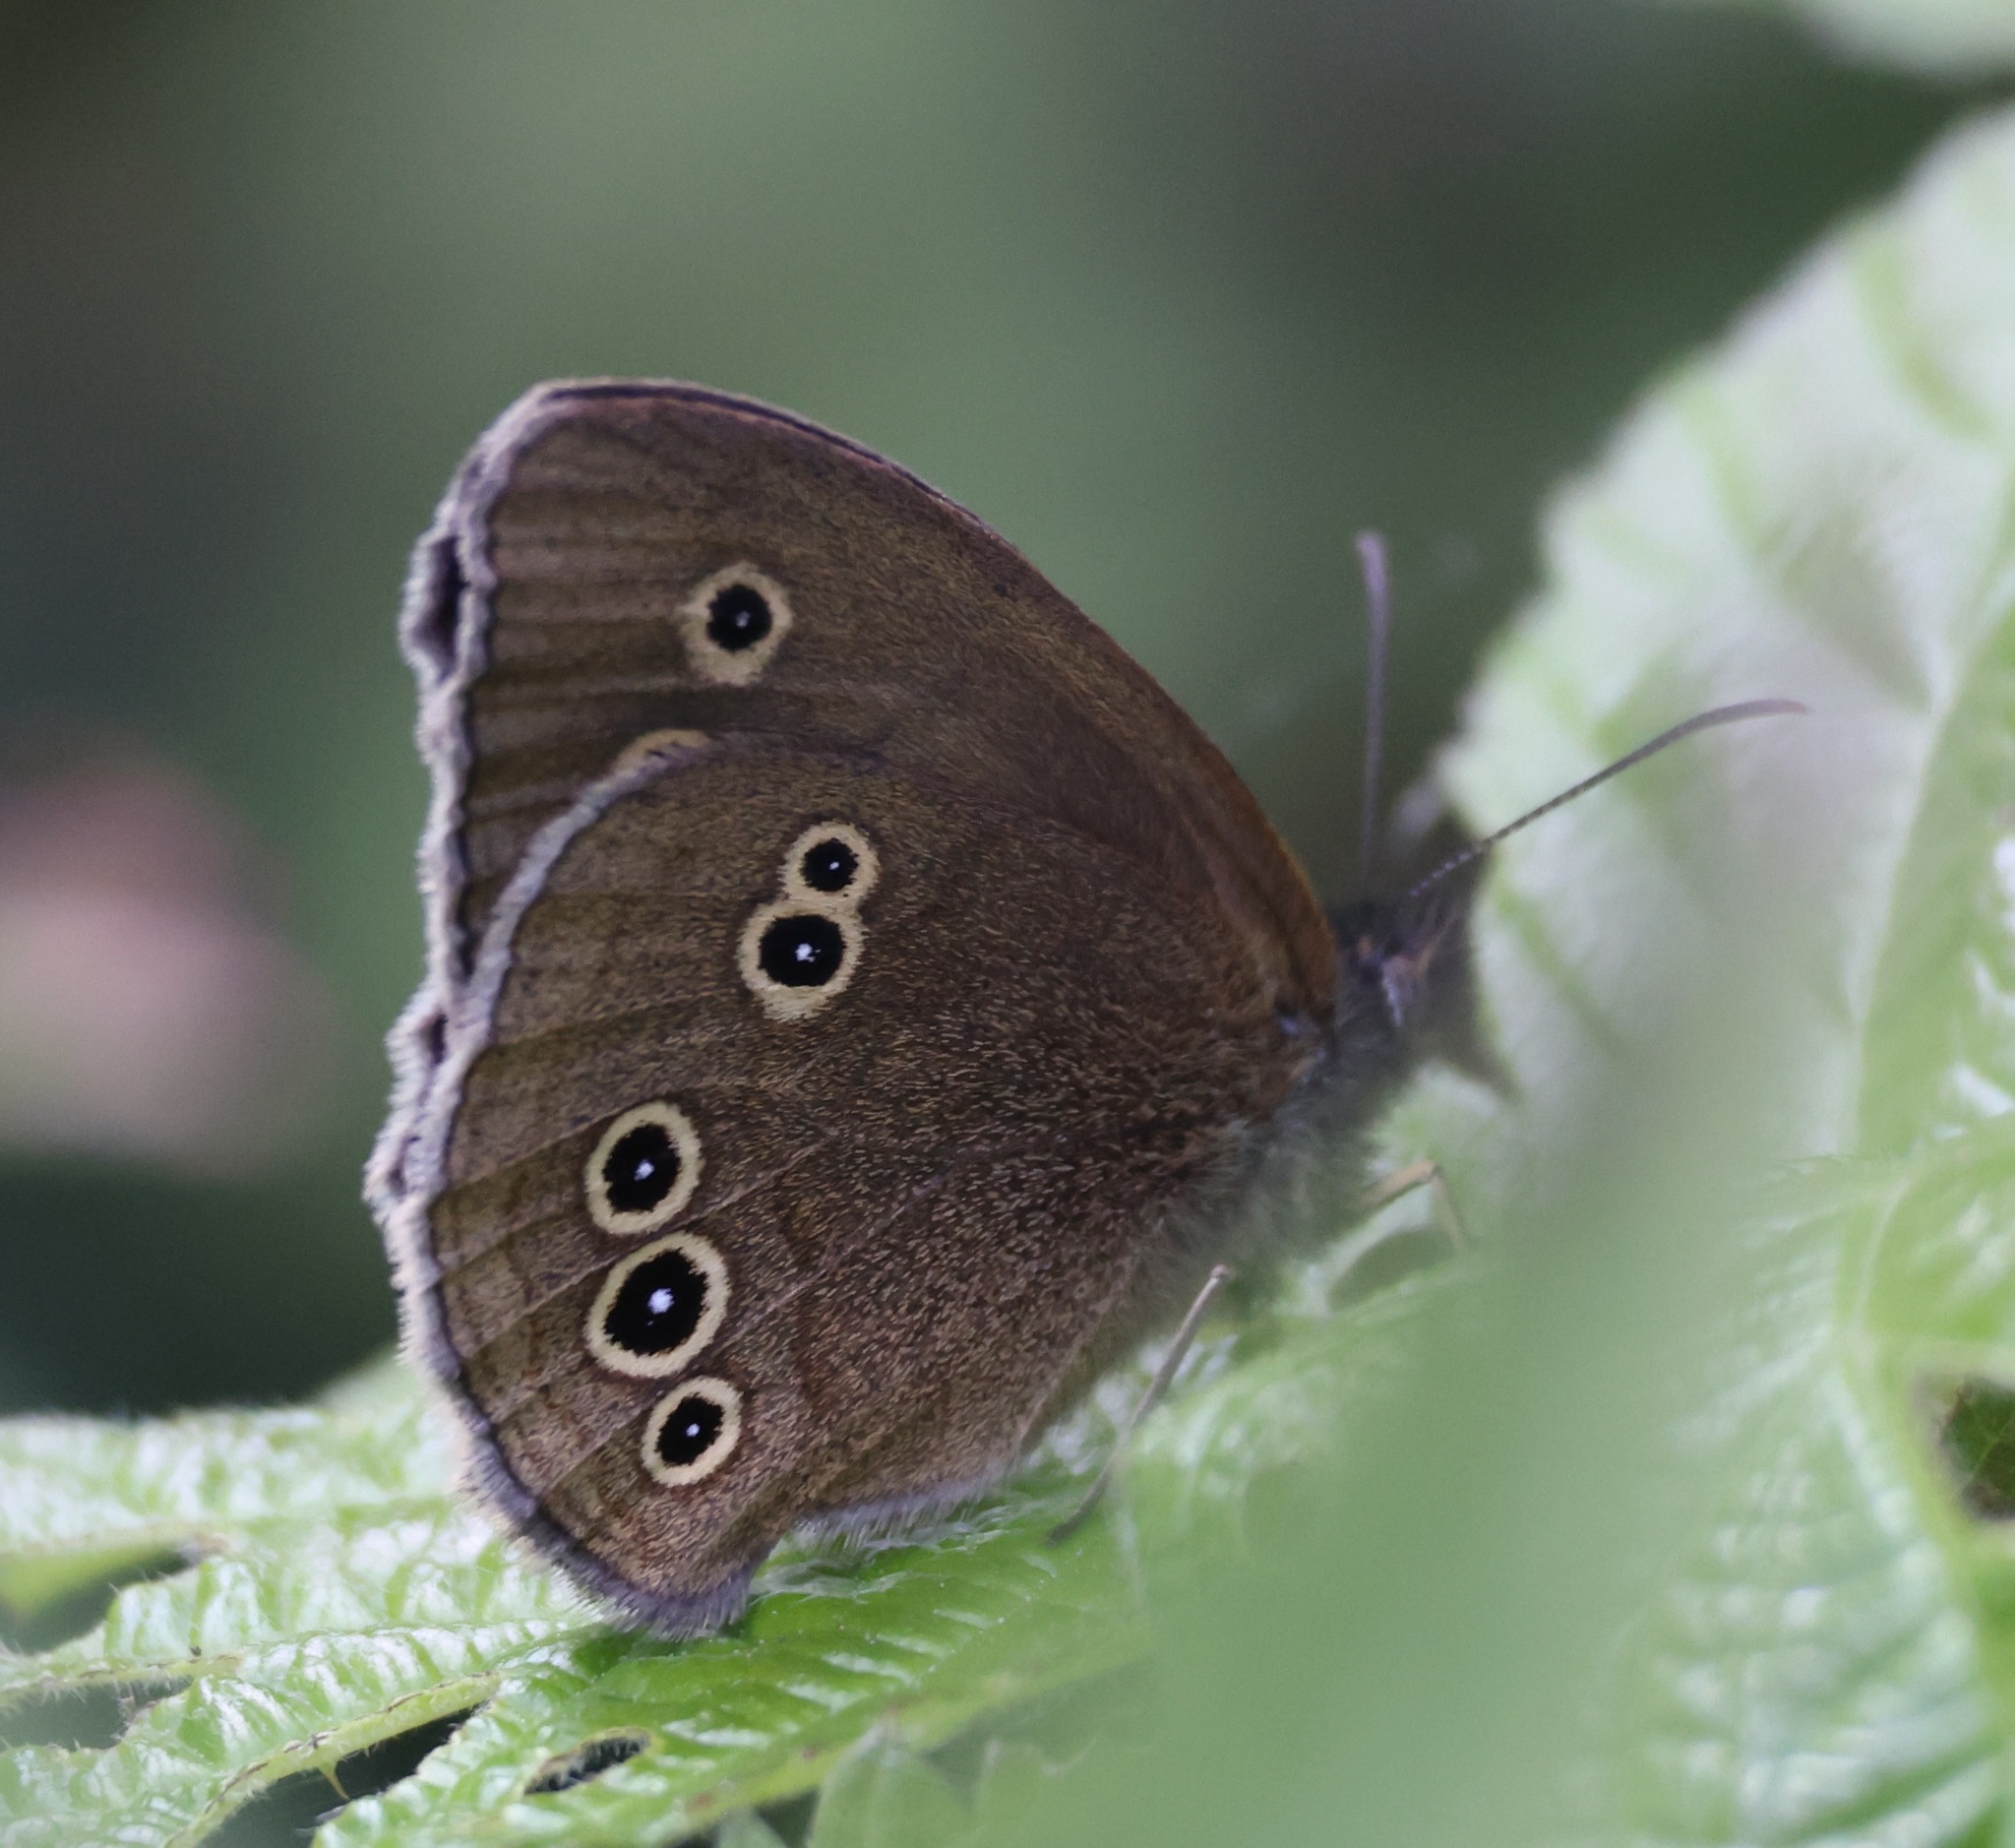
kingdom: Animalia
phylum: Arthropoda
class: Insecta
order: Lepidoptera
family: Nymphalidae
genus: Aphantopus
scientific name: Aphantopus hyperantus
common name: Ringlet
